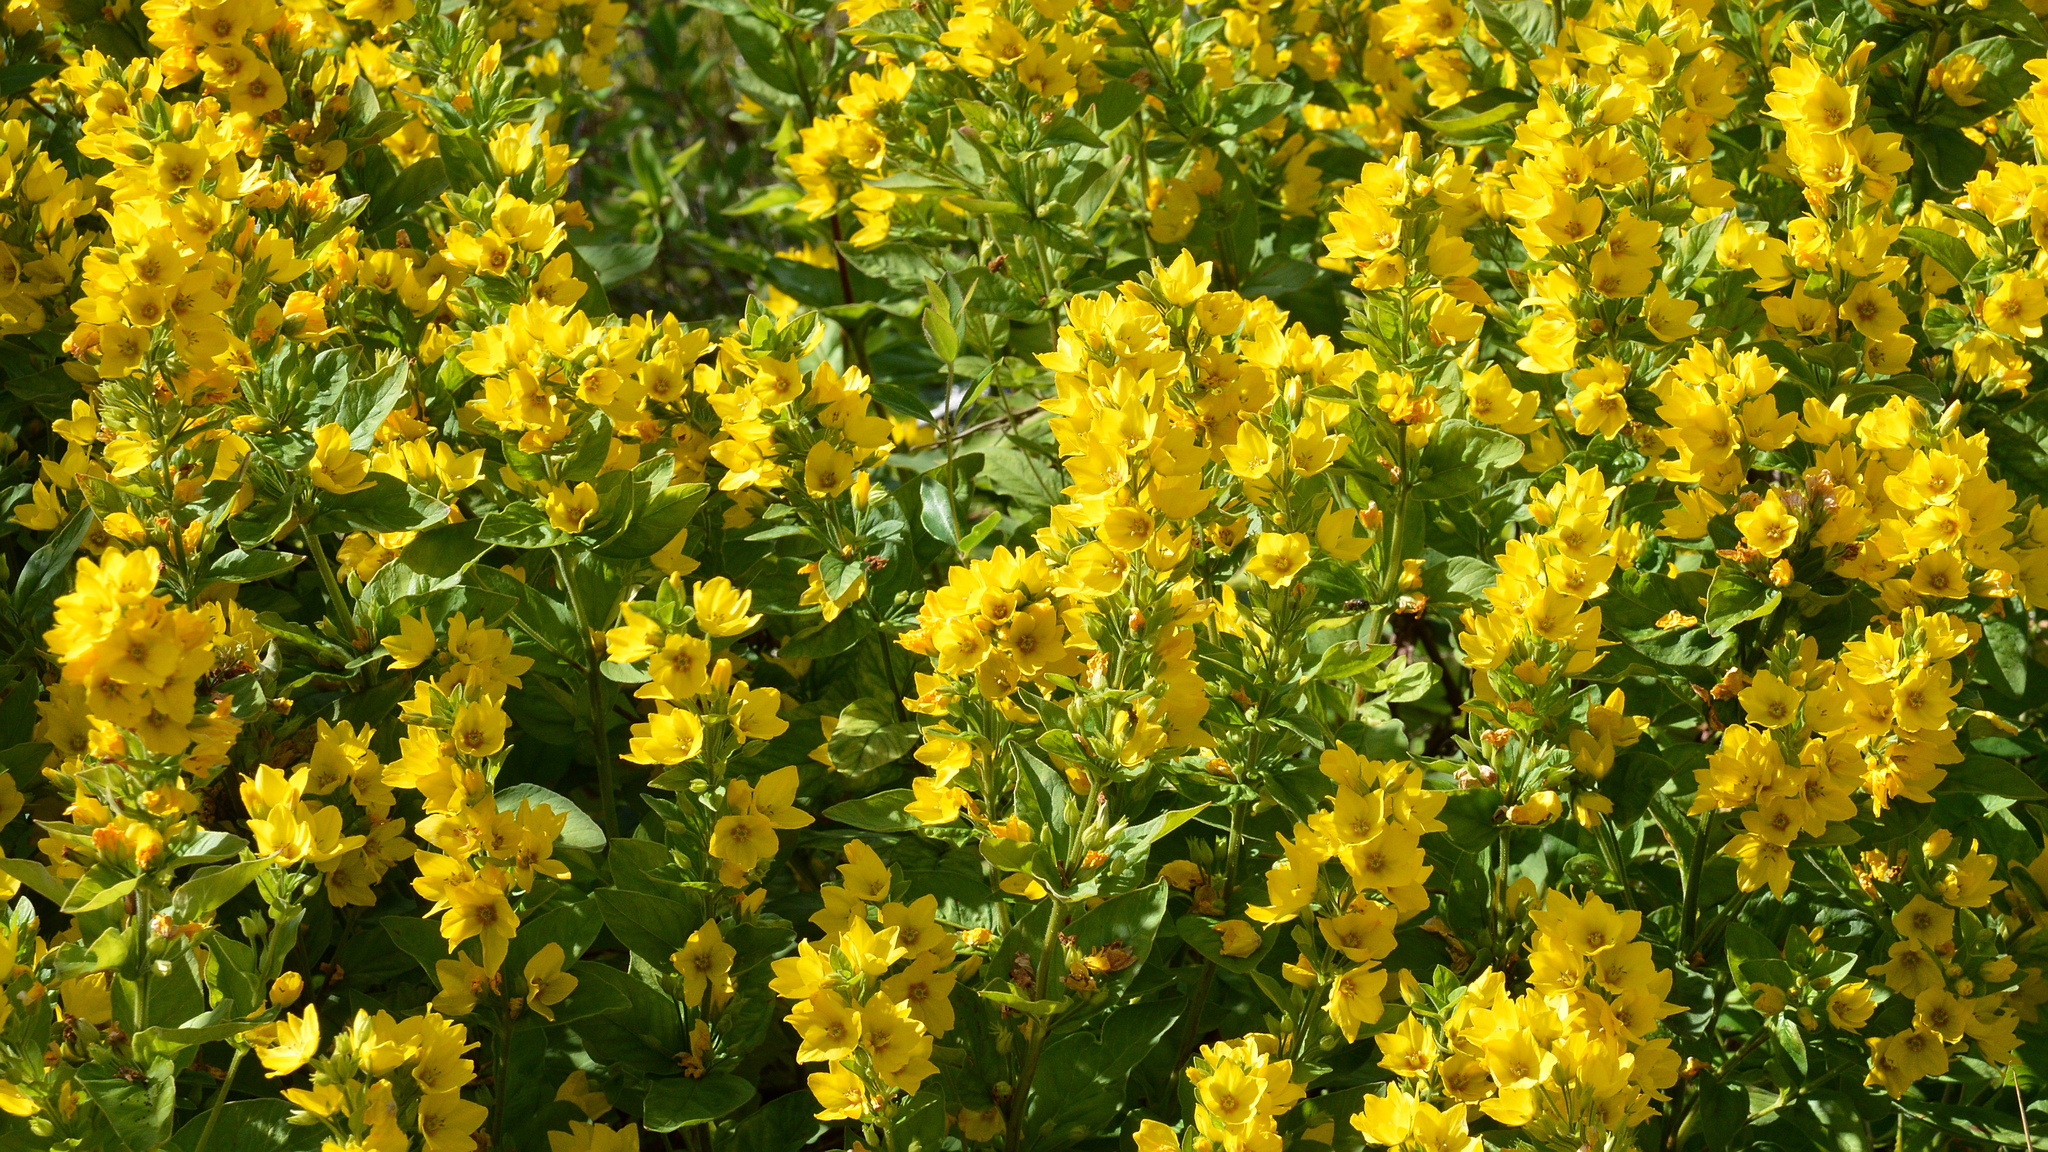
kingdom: Plantae
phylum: Tracheophyta
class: Magnoliopsida
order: Ericales
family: Primulaceae
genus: Lysimachia
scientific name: Lysimachia punctata
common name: Dotted loosestrife
